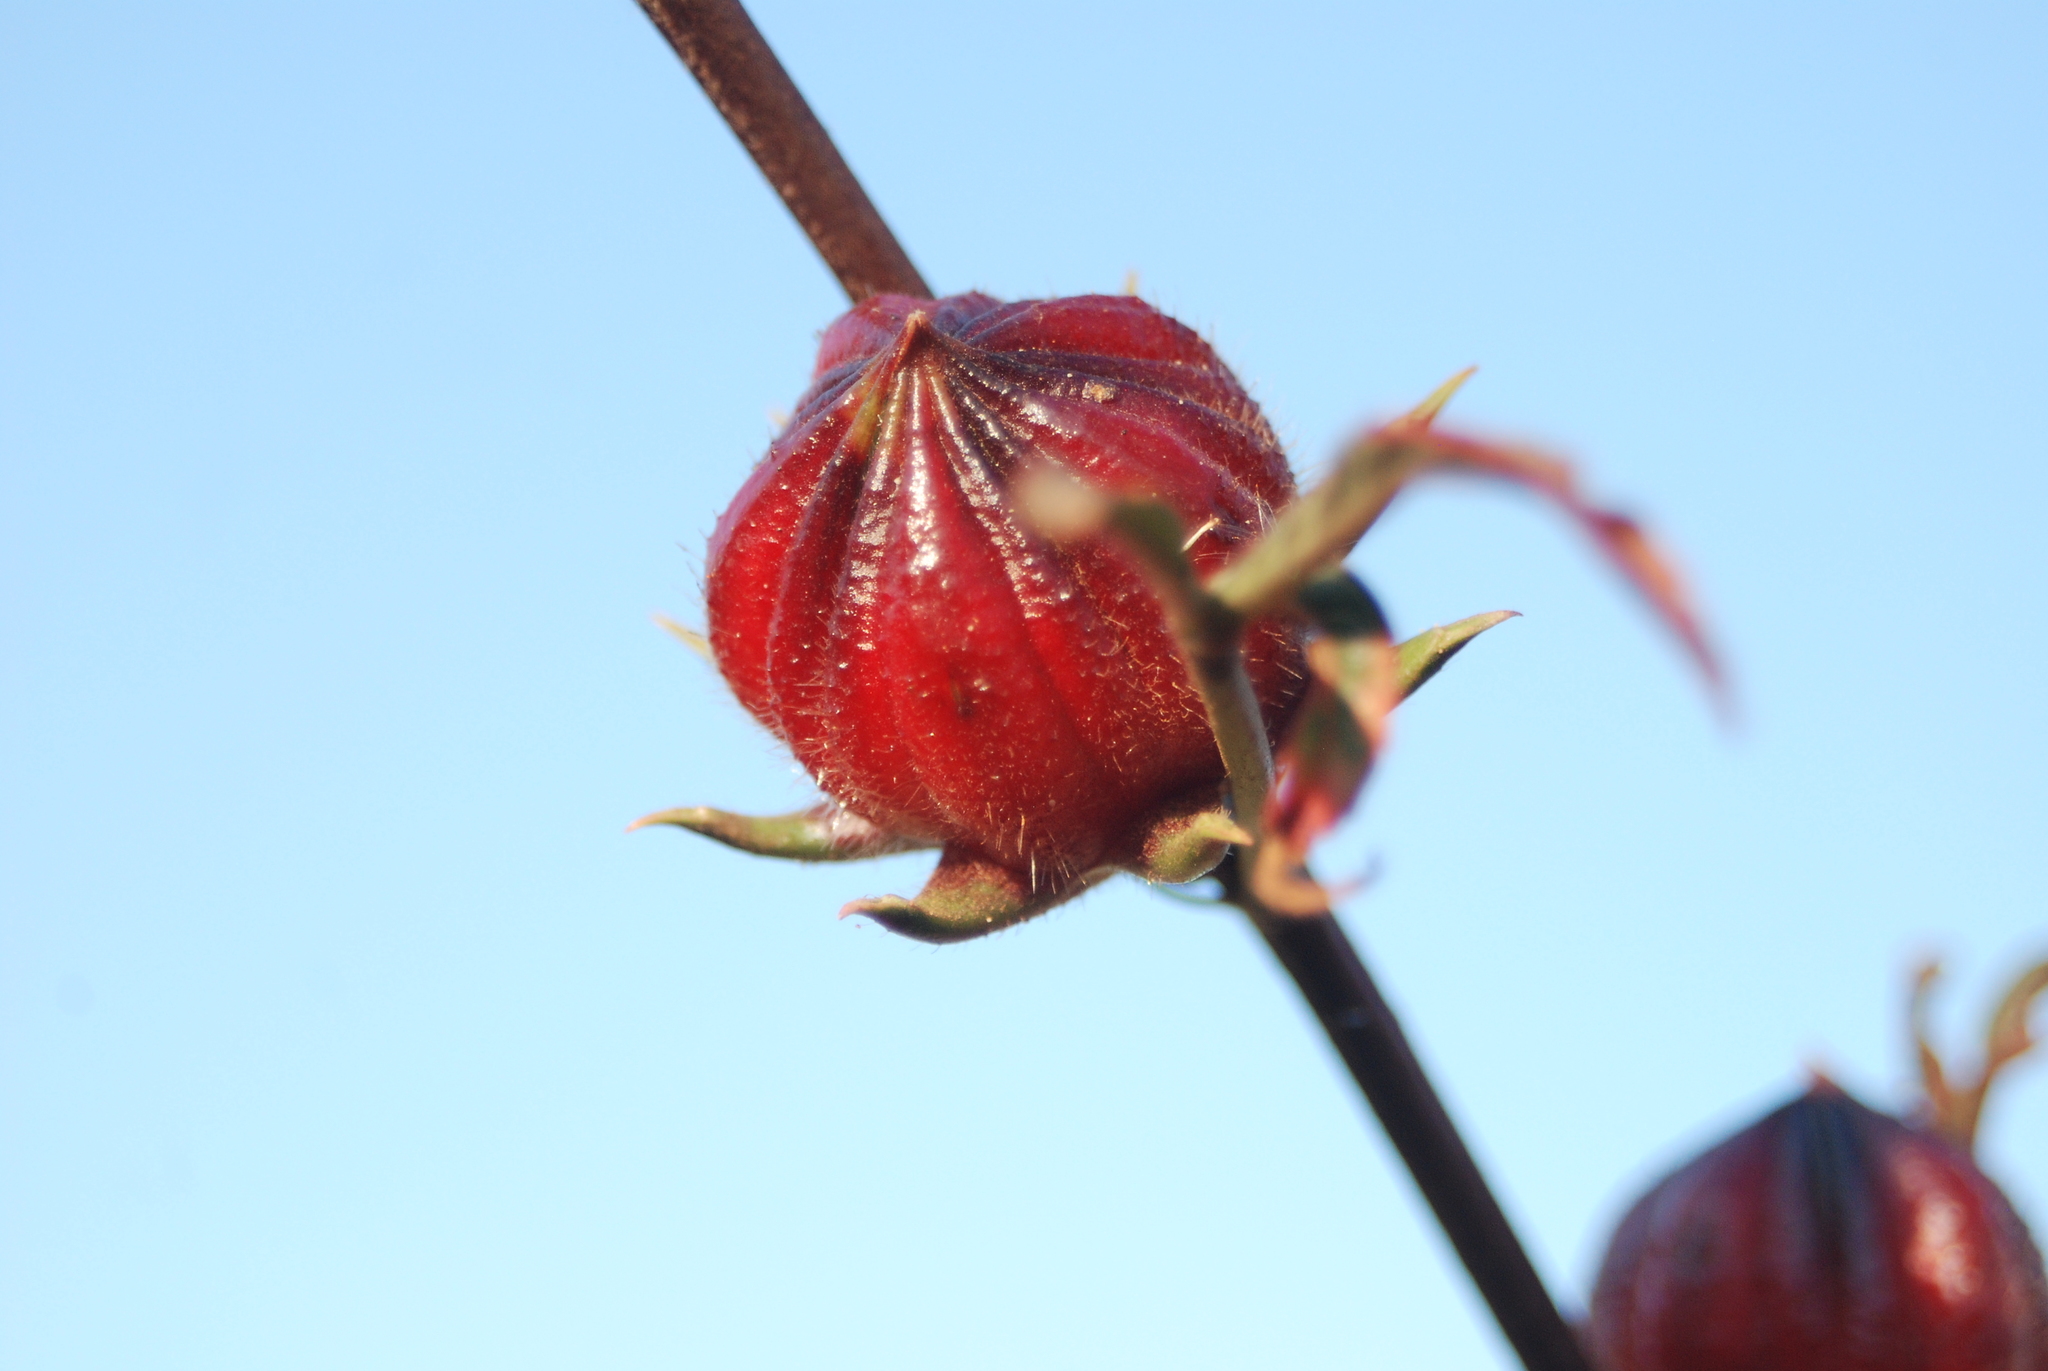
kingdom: Plantae
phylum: Tracheophyta
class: Magnoliopsida
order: Malvales
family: Malvaceae
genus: Hibiscus
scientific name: Hibiscus sabdariffa
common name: Roselle
